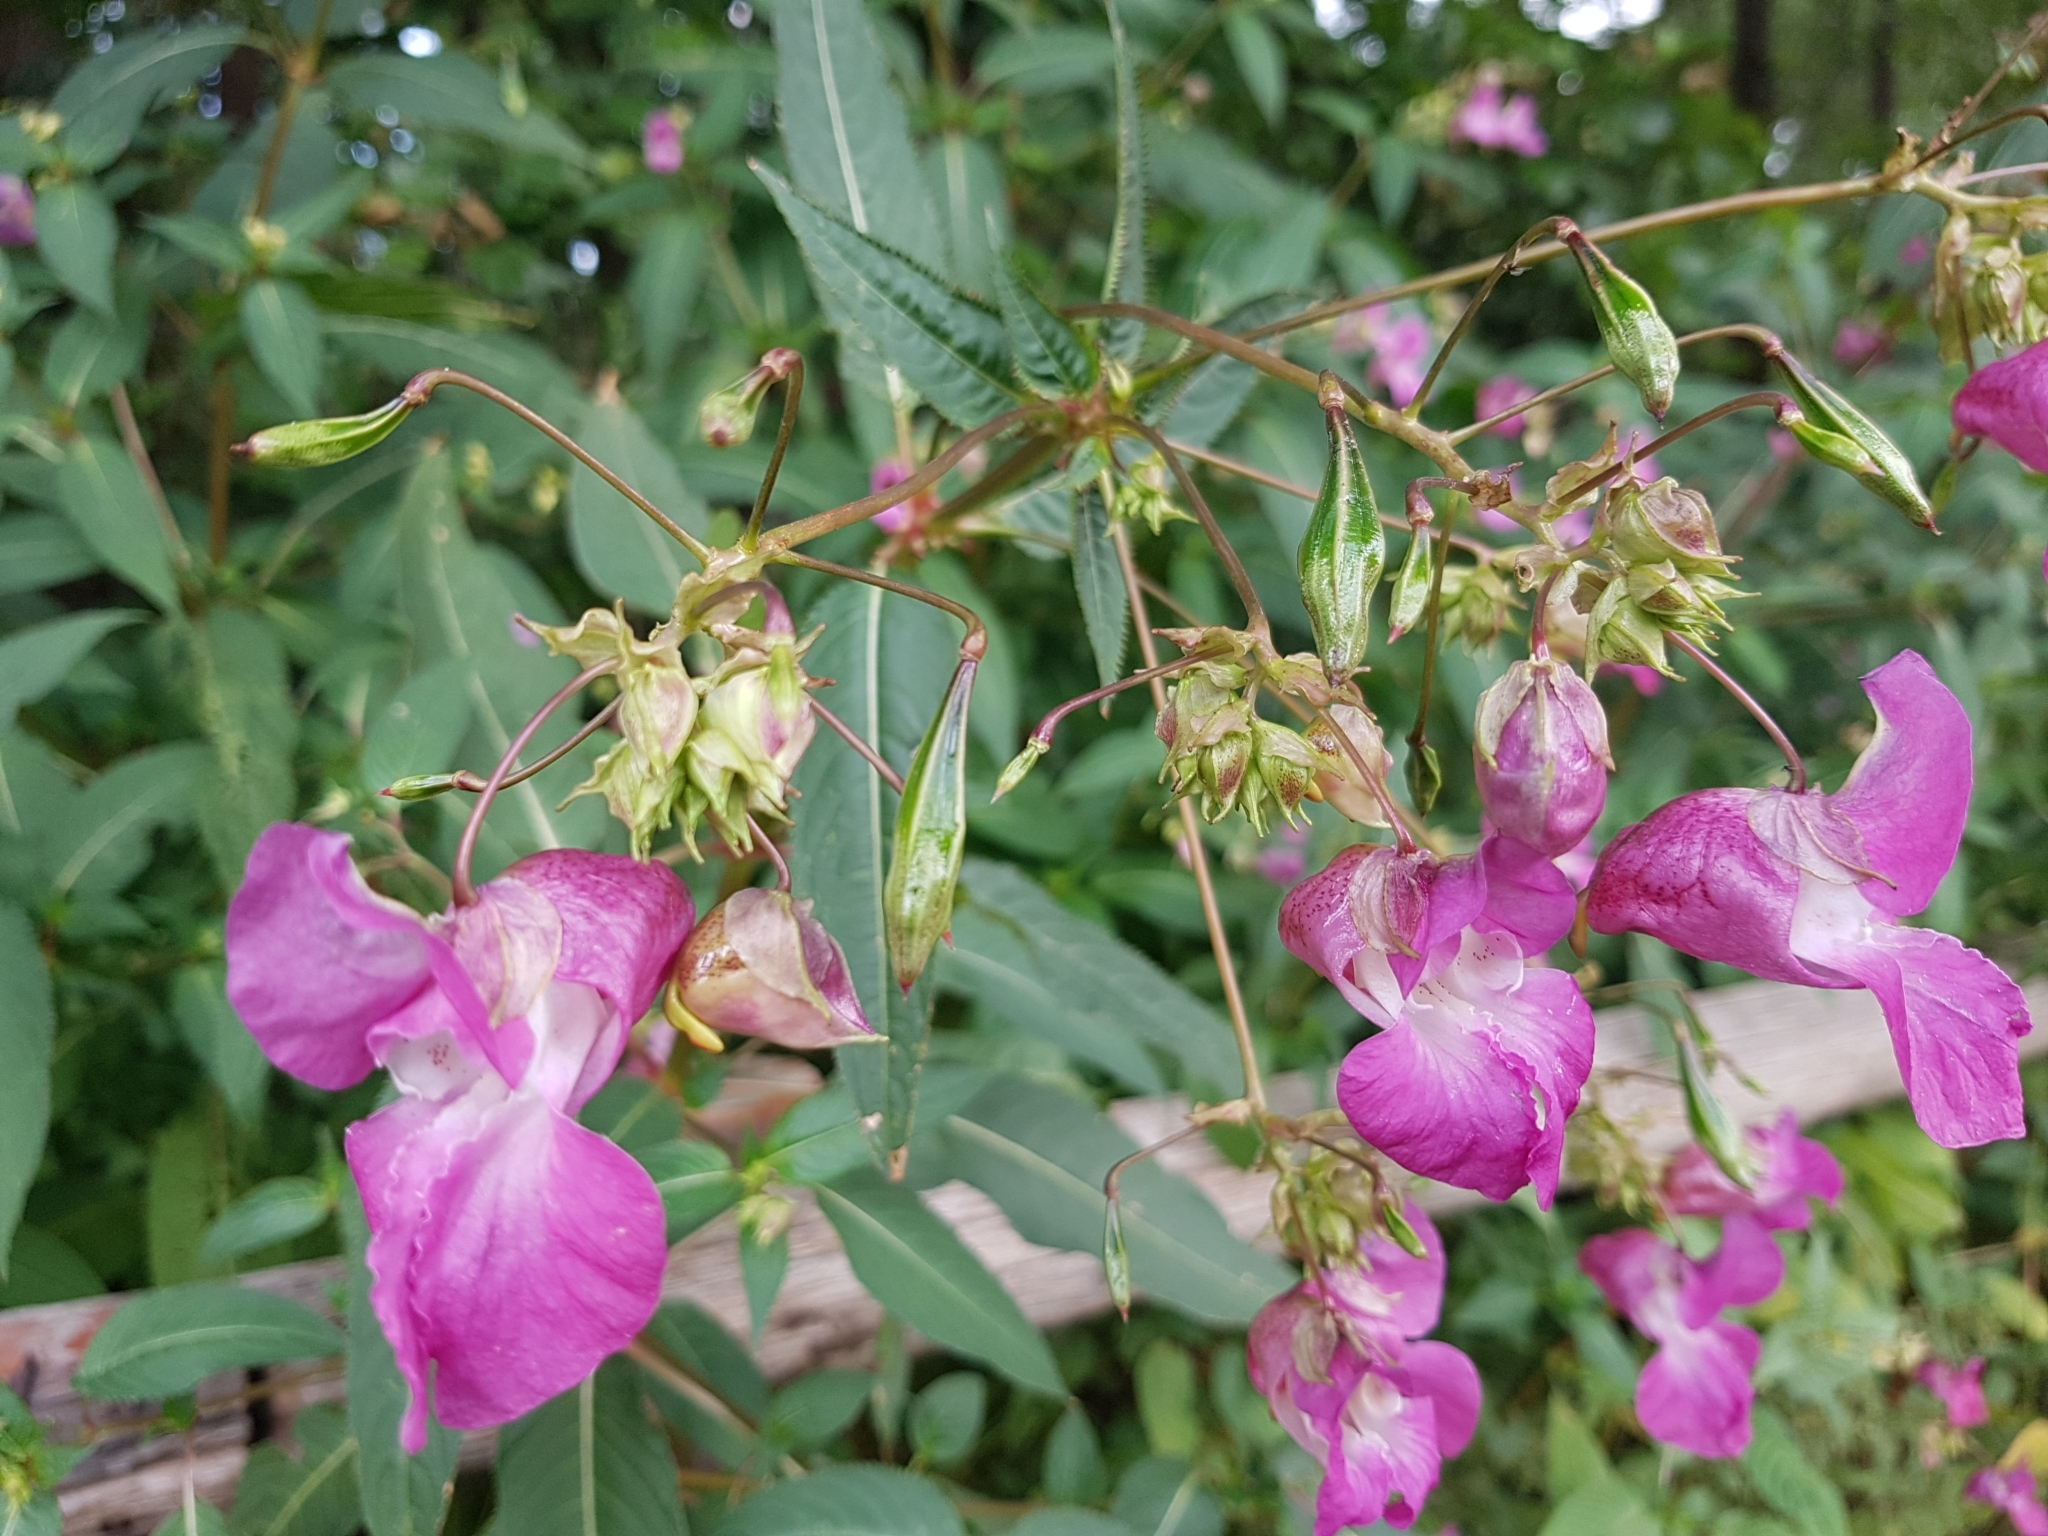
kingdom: Plantae
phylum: Tracheophyta
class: Magnoliopsida
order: Ericales
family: Balsaminaceae
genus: Impatiens
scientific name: Impatiens glandulifera
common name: Himalayan balsam
